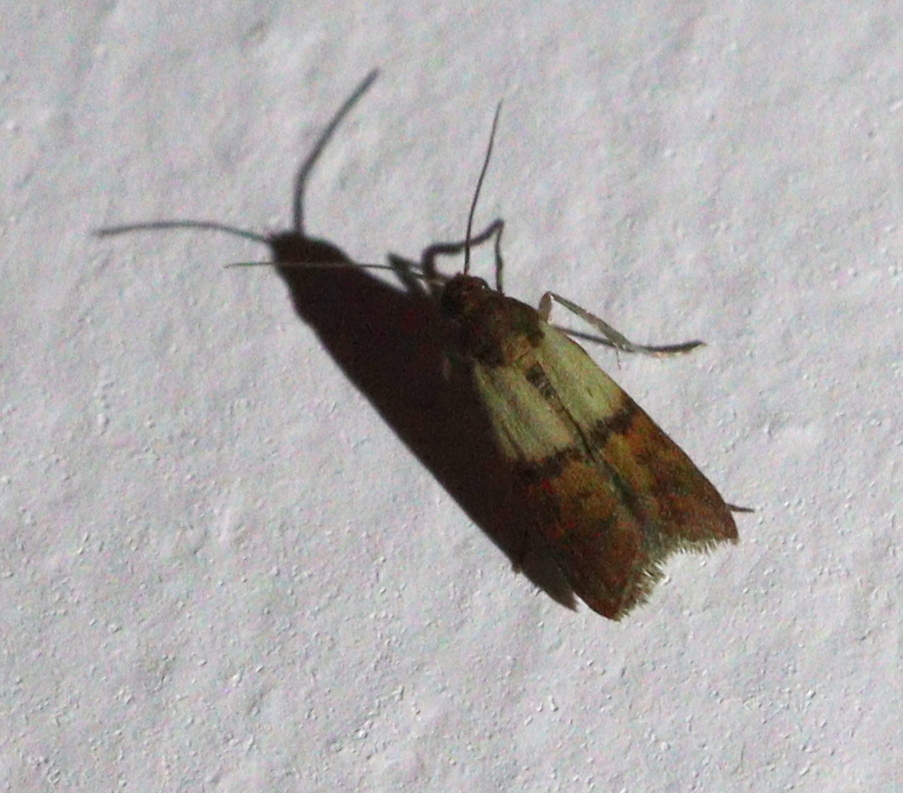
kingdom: Animalia
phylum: Arthropoda
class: Insecta
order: Lepidoptera
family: Pyralidae
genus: Plodia
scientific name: Plodia interpunctella
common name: Indian meal moth
